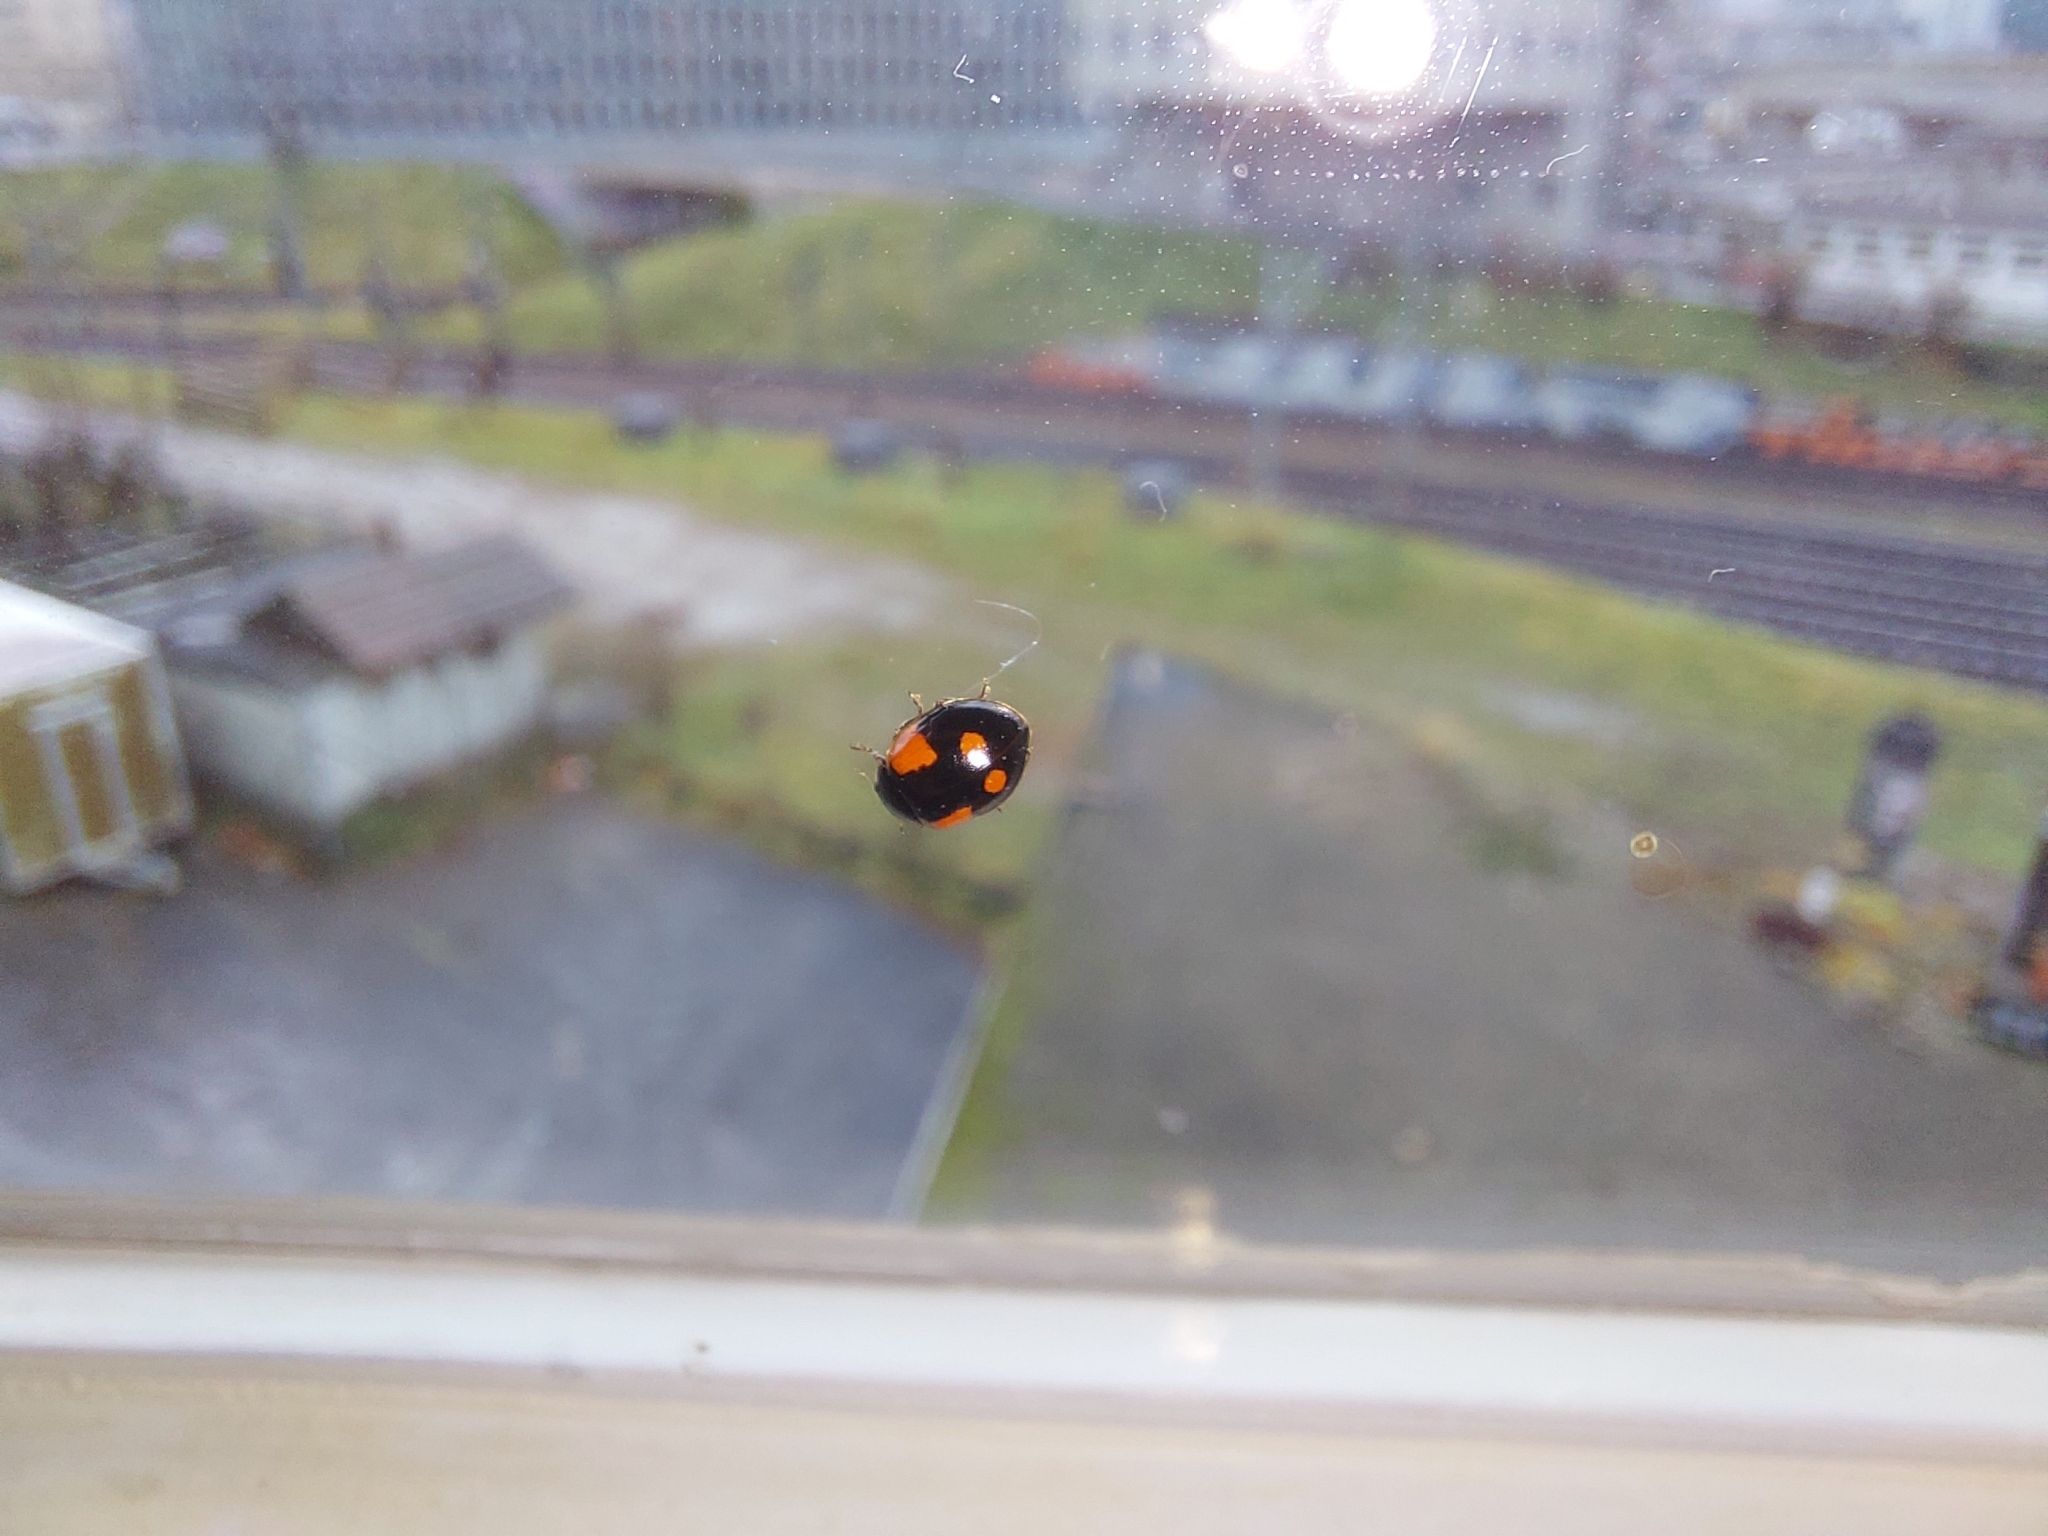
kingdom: Animalia
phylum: Arthropoda
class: Insecta
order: Coleoptera
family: Coccinellidae
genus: Adalia
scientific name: Adalia bipunctata
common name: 2-spot ladybird
